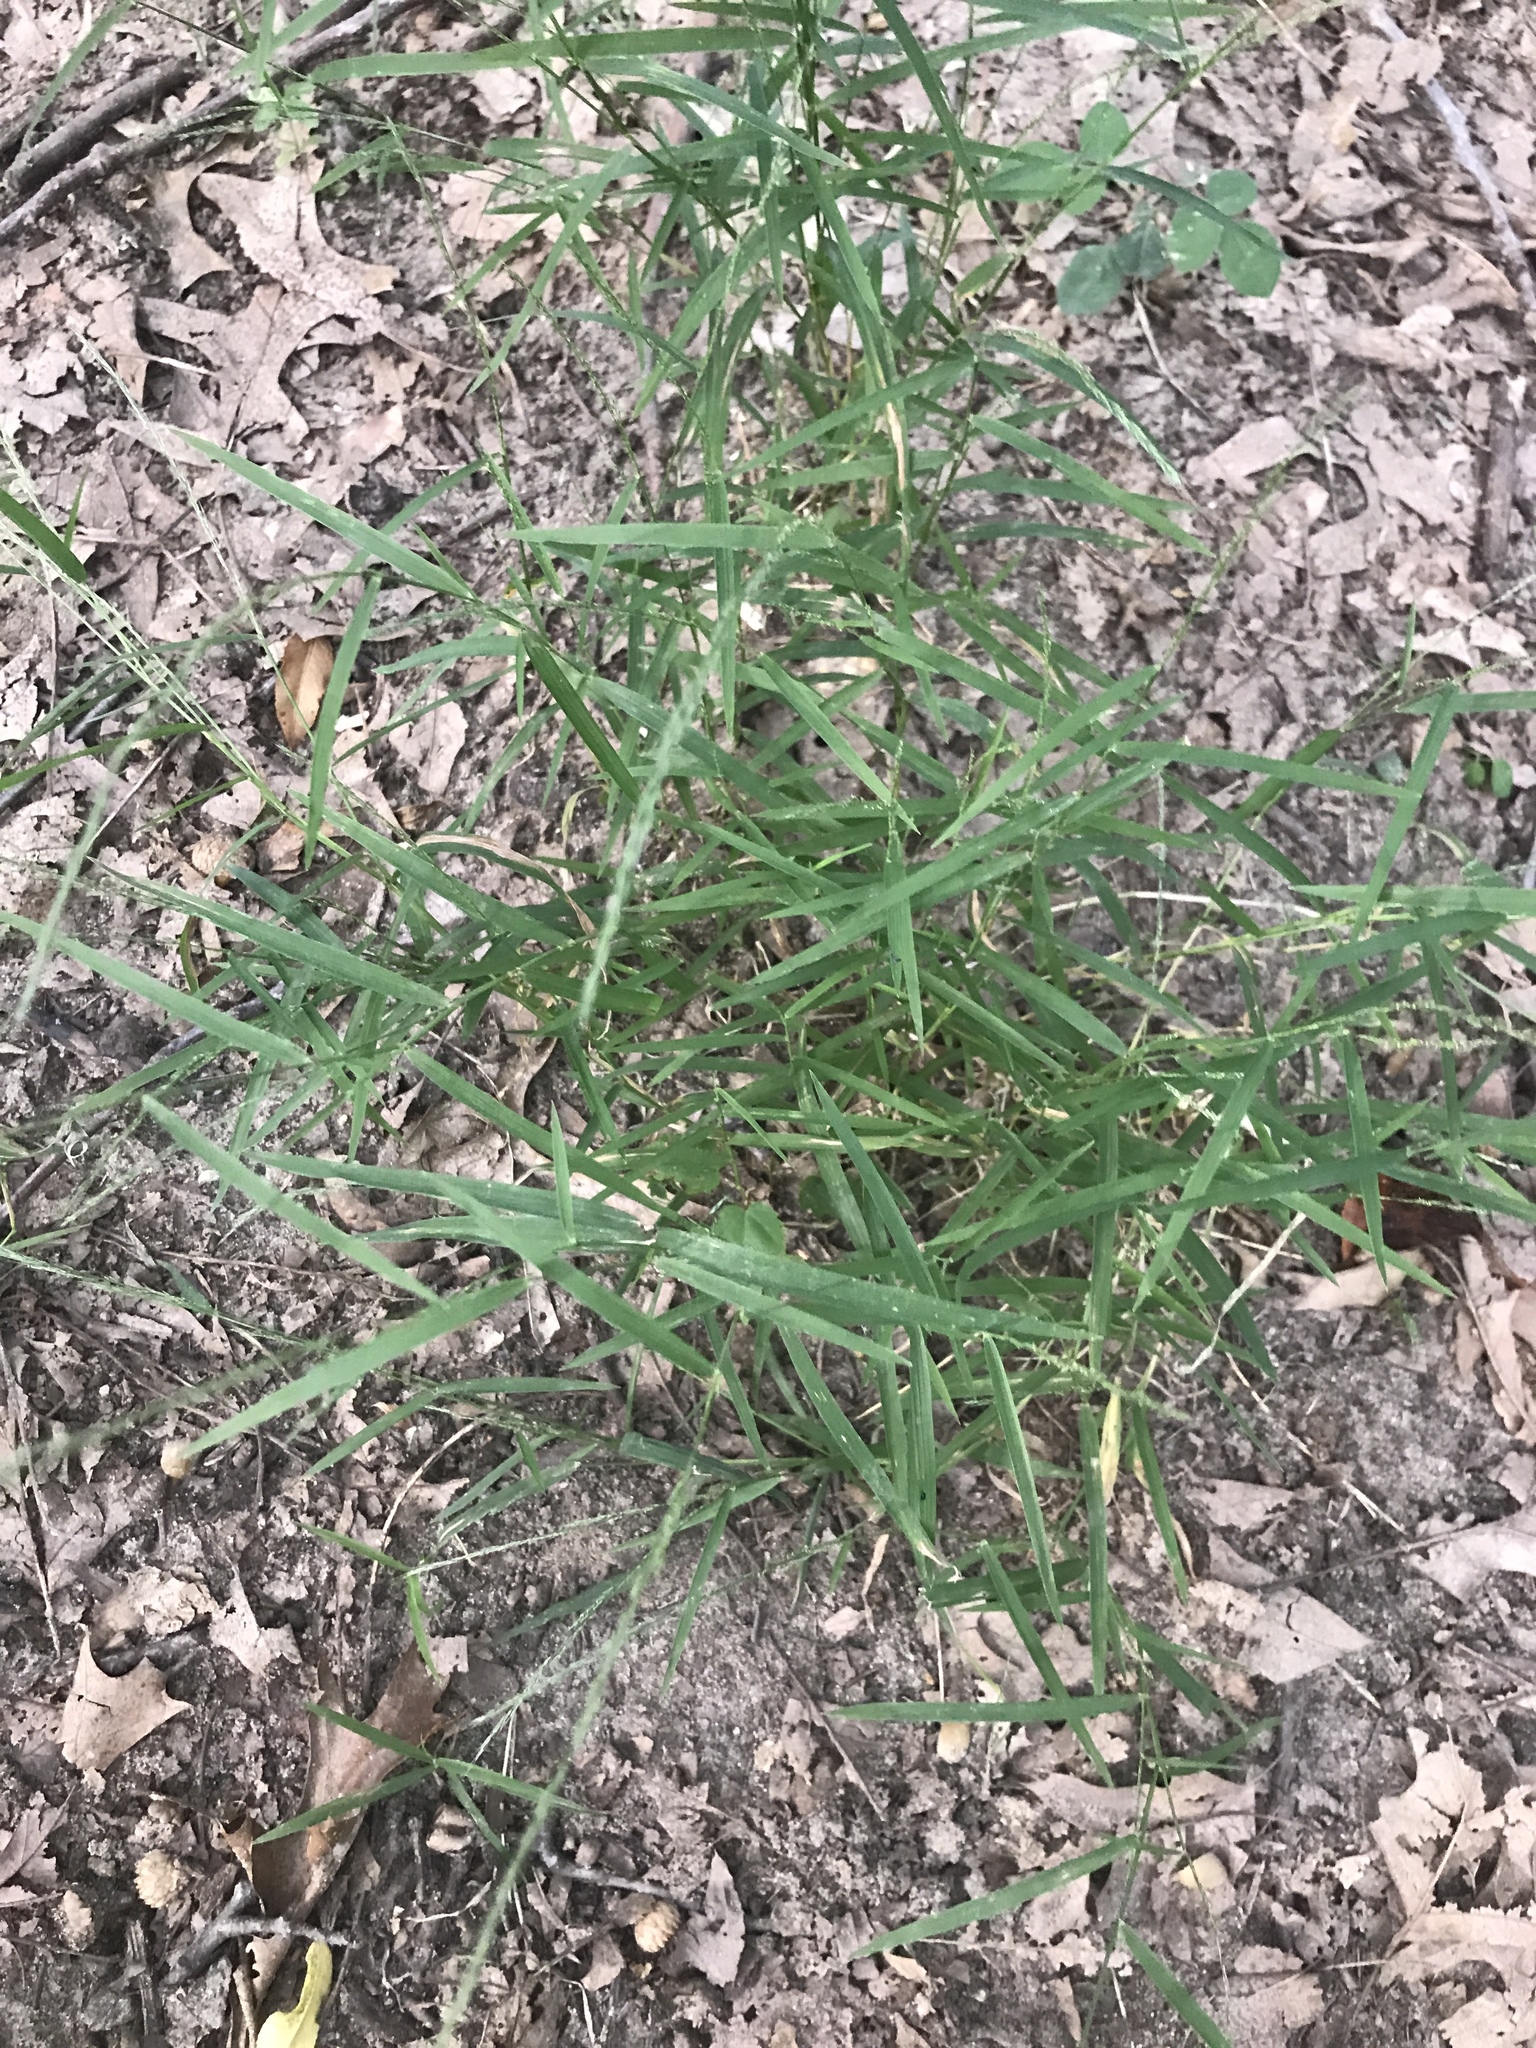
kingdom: Plantae
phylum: Tracheophyta
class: Liliopsida
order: Poales
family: Poaceae
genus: Muhlenbergia
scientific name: Muhlenbergia schreberi
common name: Nimblewill
